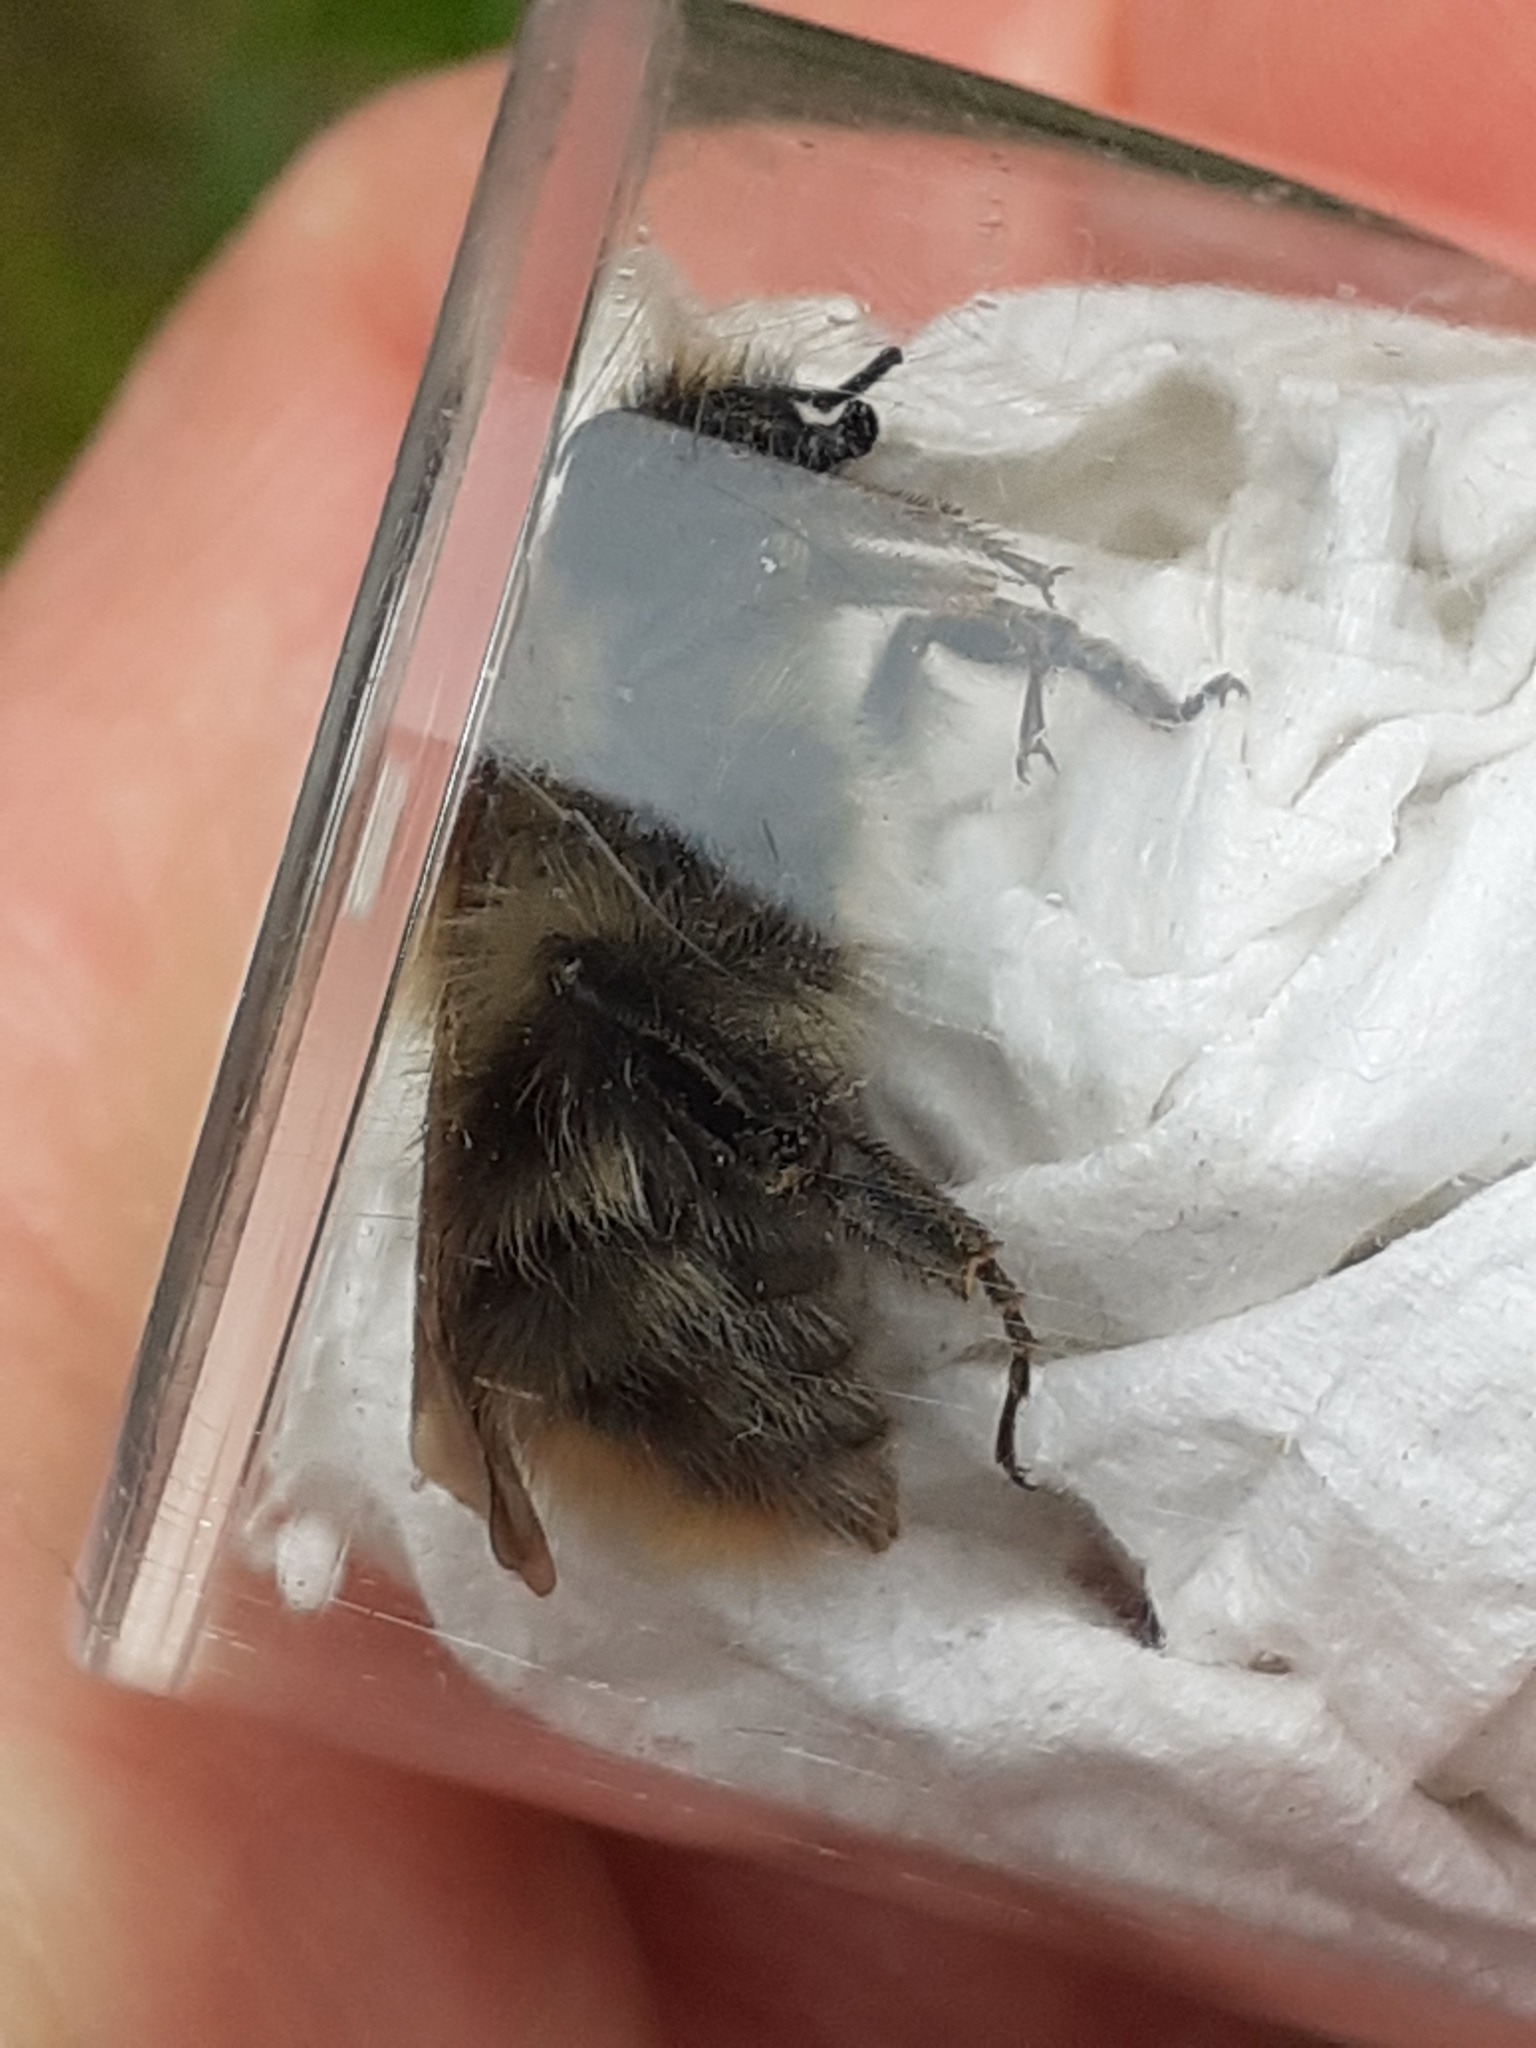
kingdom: Animalia
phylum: Arthropoda
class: Insecta
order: Hymenoptera
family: Apidae
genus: Bombus
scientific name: Bombus pascuorum
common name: Common carder bee
